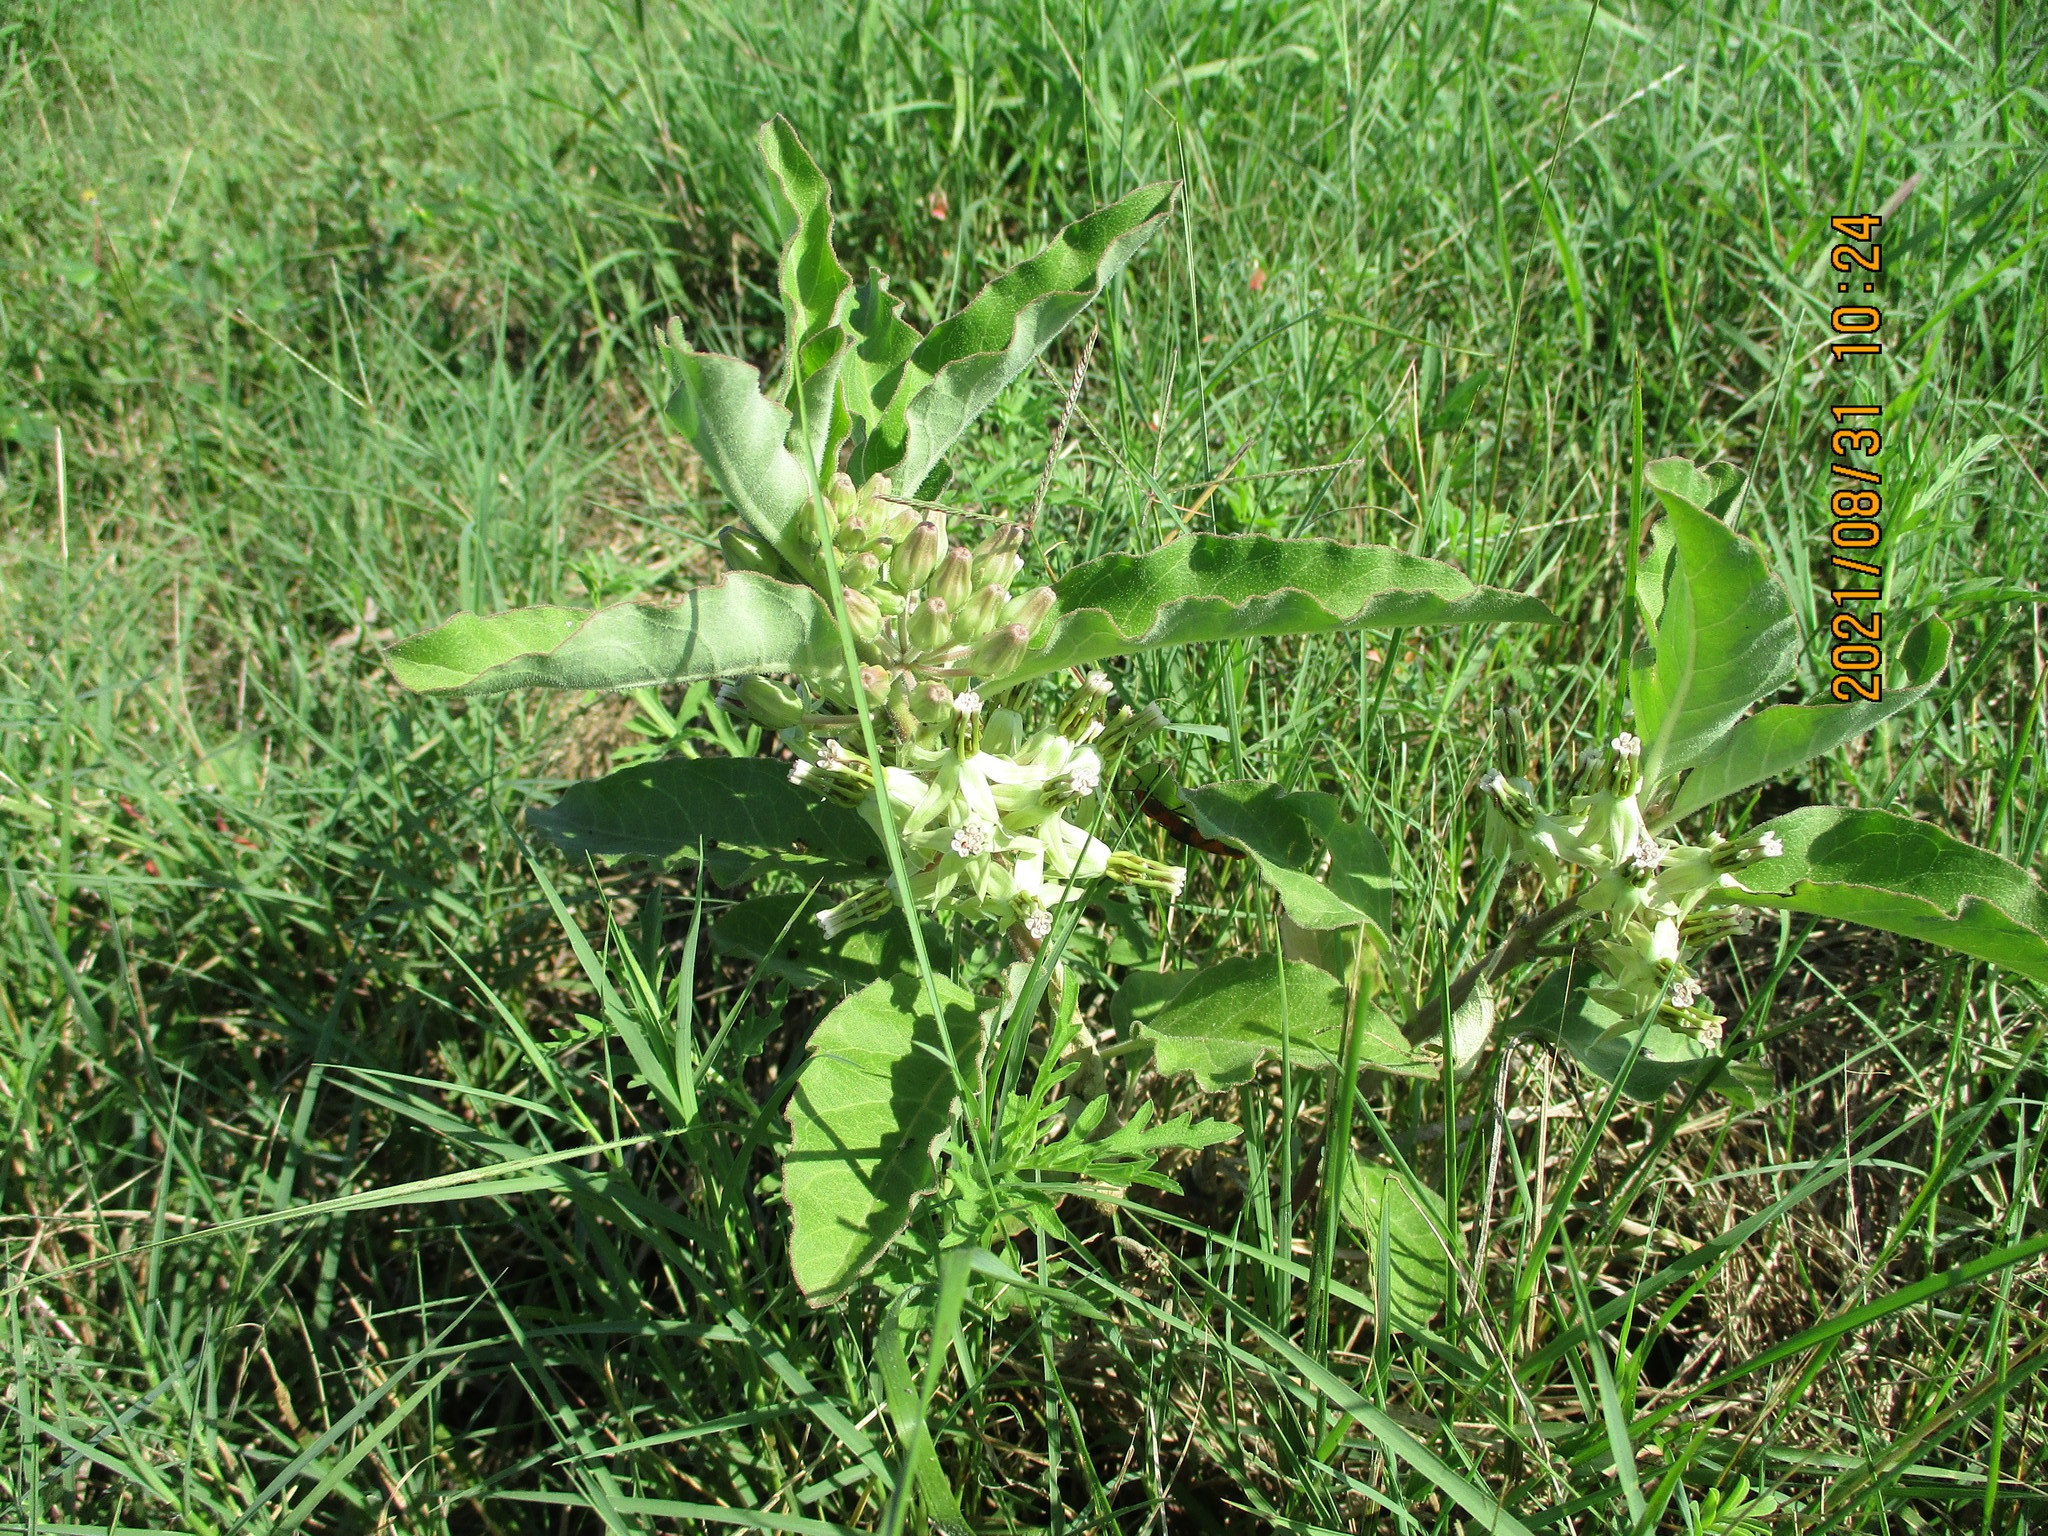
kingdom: Plantae
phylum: Tracheophyta
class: Magnoliopsida
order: Gentianales
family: Apocynaceae
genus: Asclepias
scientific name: Asclepias oenotheroides
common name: Zizotes milkweed
